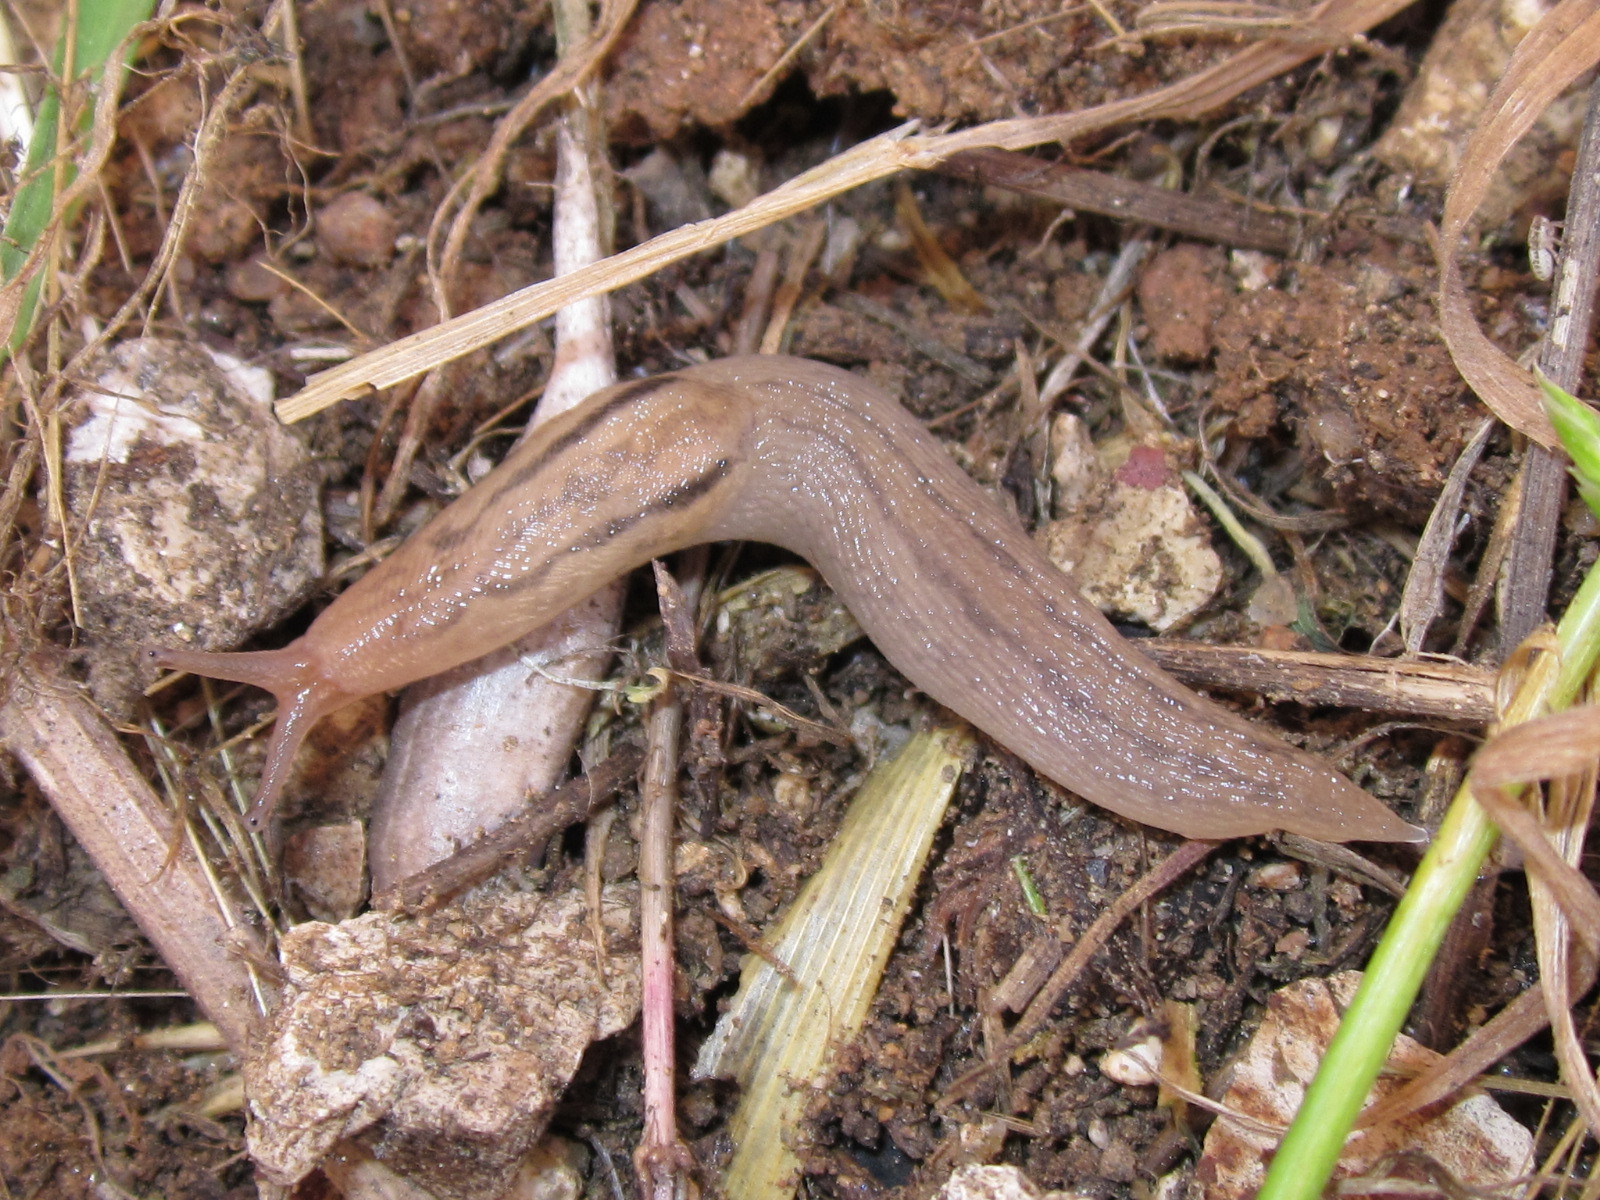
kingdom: Animalia
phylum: Mollusca
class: Gastropoda
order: Stylommatophora
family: Limacidae
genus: Ambigolimax
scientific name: Ambigolimax valentianus
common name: Greenhouse slug
